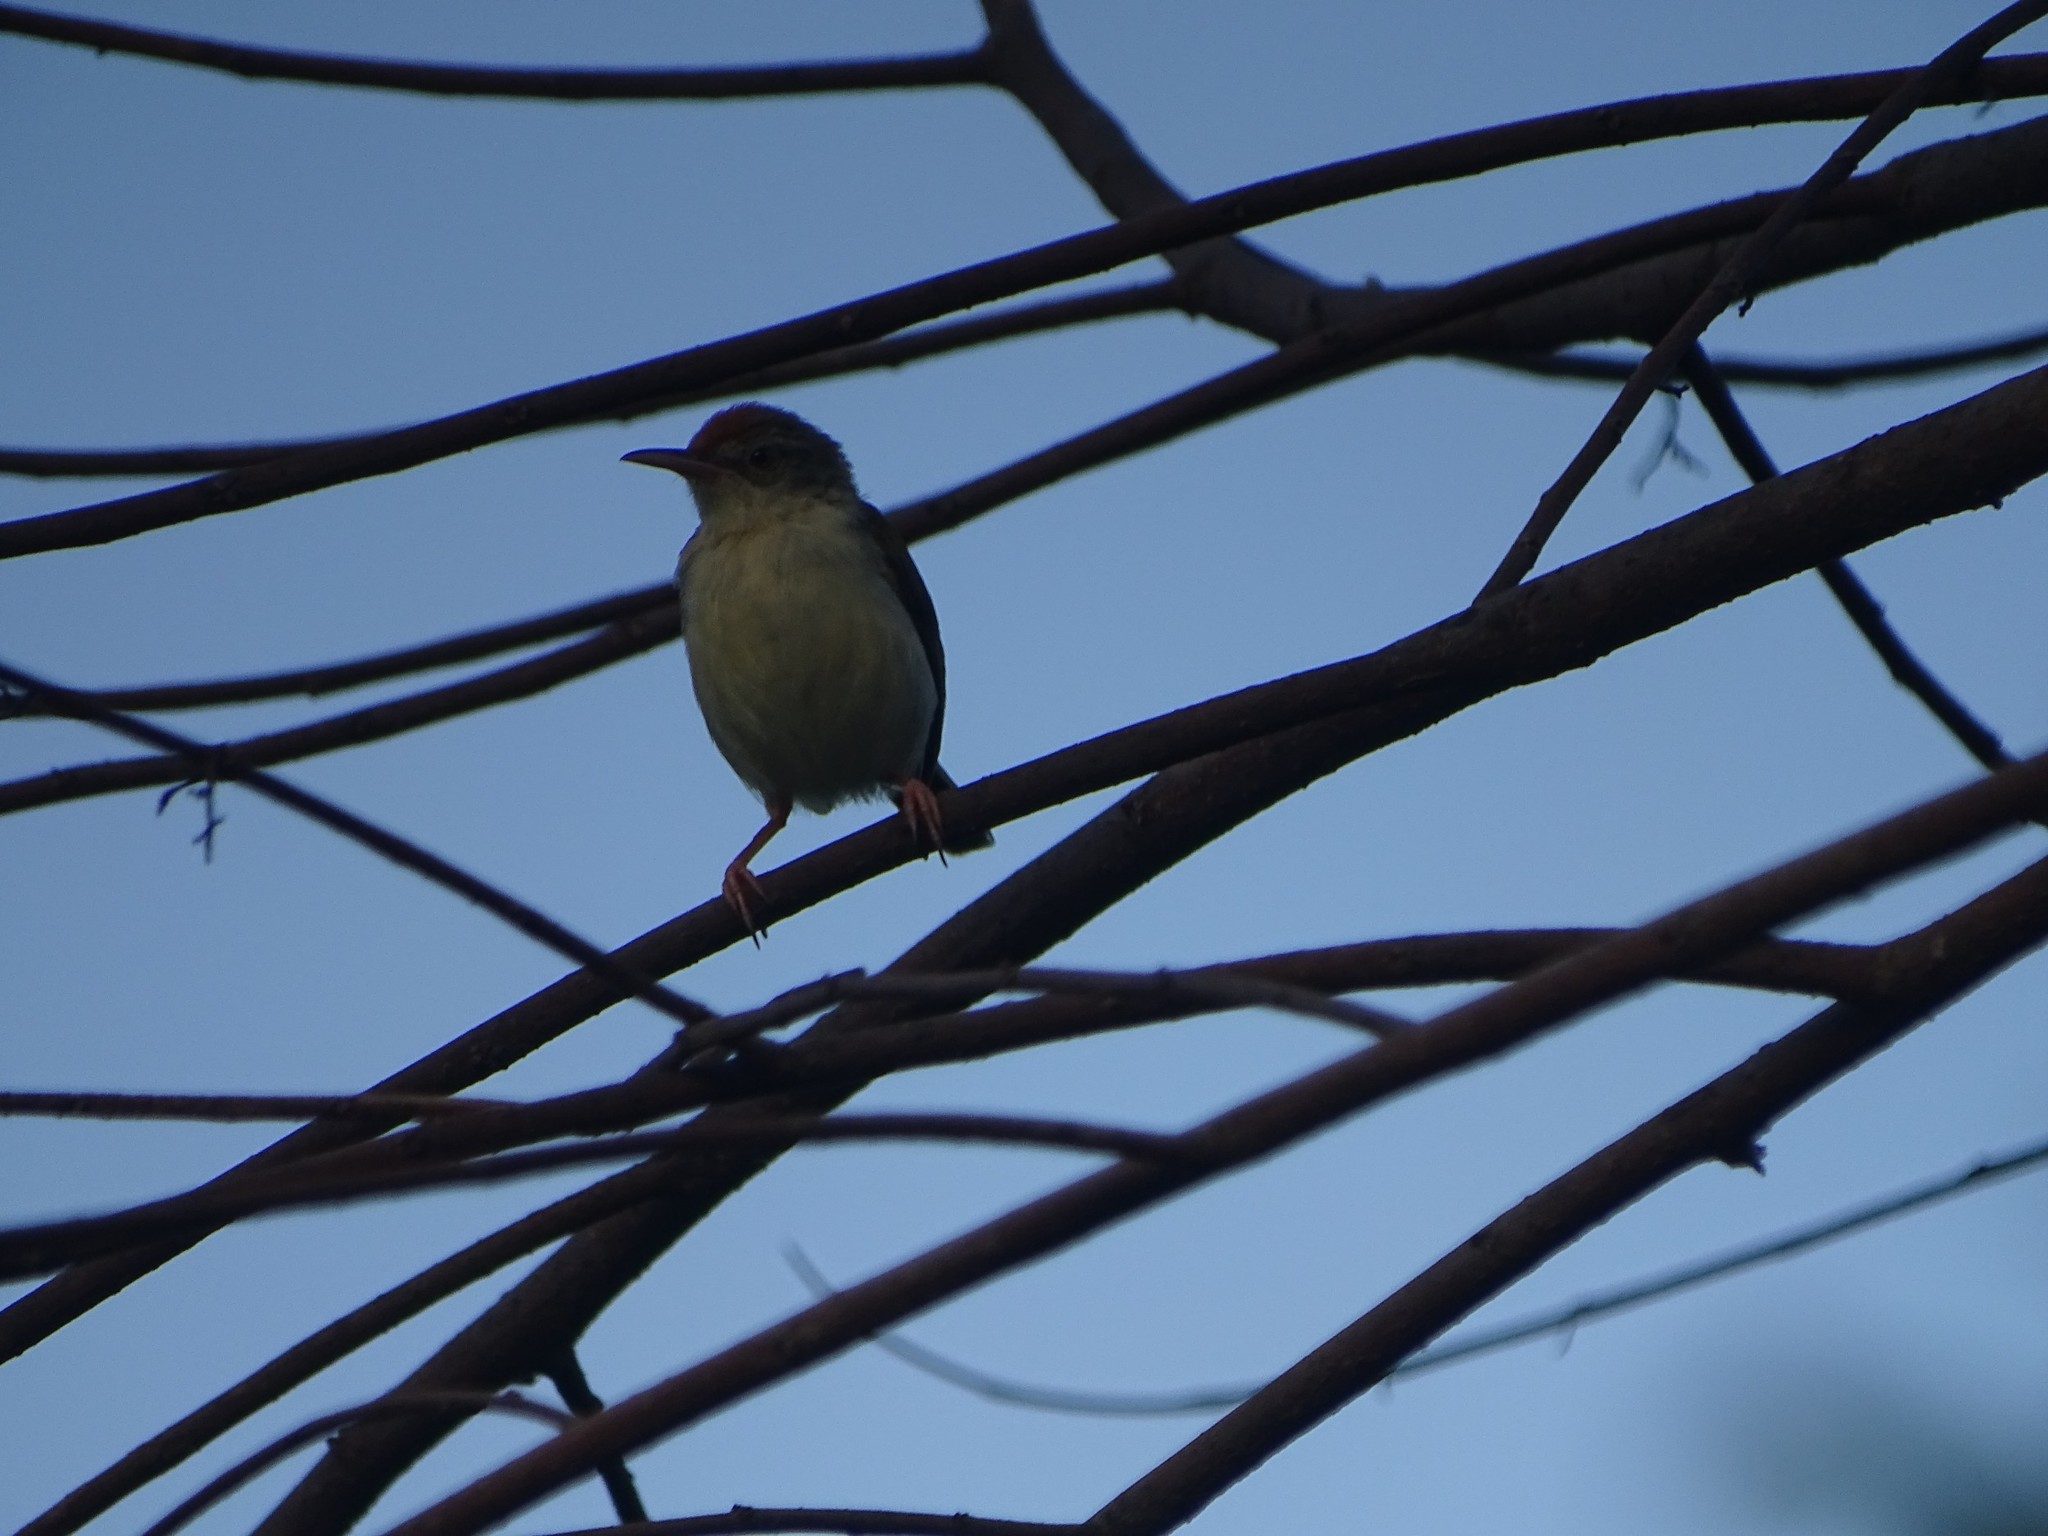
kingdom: Animalia
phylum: Chordata
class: Aves
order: Passeriformes
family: Cisticolidae
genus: Orthotomus
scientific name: Orthotomus sutorius
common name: Common tailorbird
